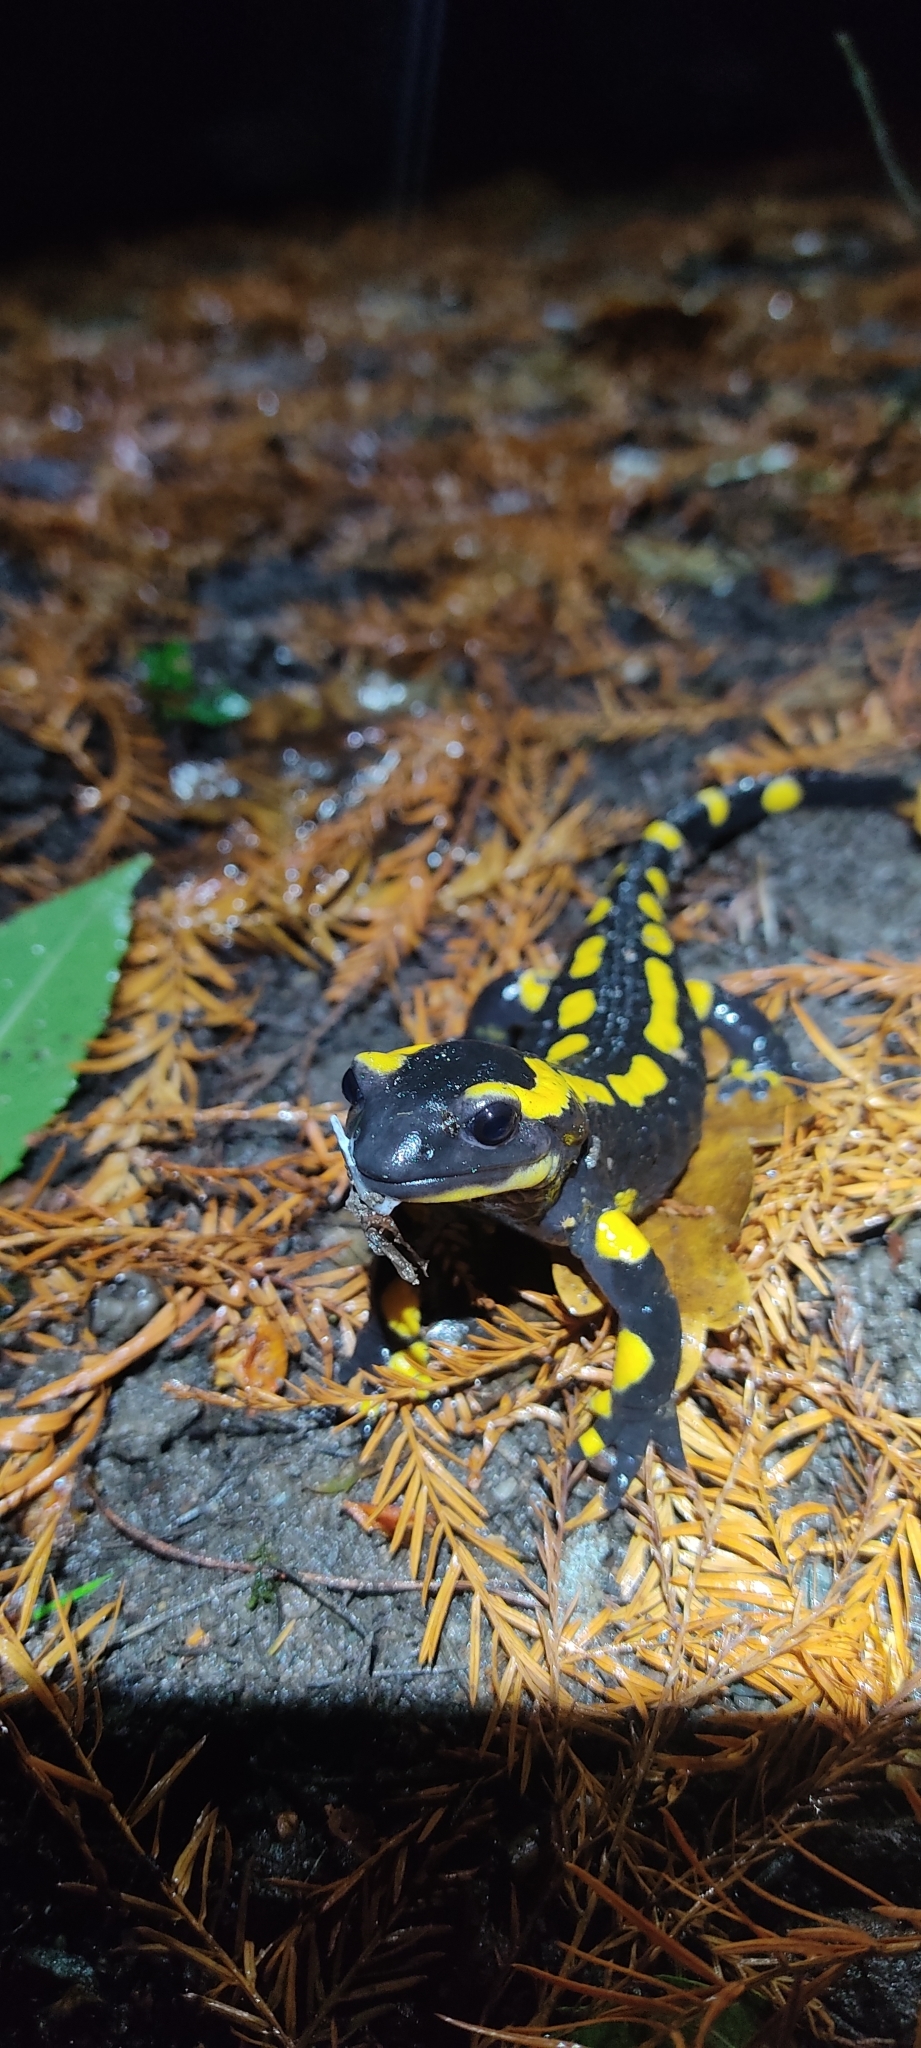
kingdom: Animalia
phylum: Chordata
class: Amphibia
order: Caudata
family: Salamandridae
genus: Salamandra
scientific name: Salamandra salamandra
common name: Fire salamander
